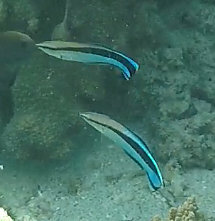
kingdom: Animalia
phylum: Chordata
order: Perciformes
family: Labridae
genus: Labroides
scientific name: Labroides dimidiatus
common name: Blue diesel wrasse
